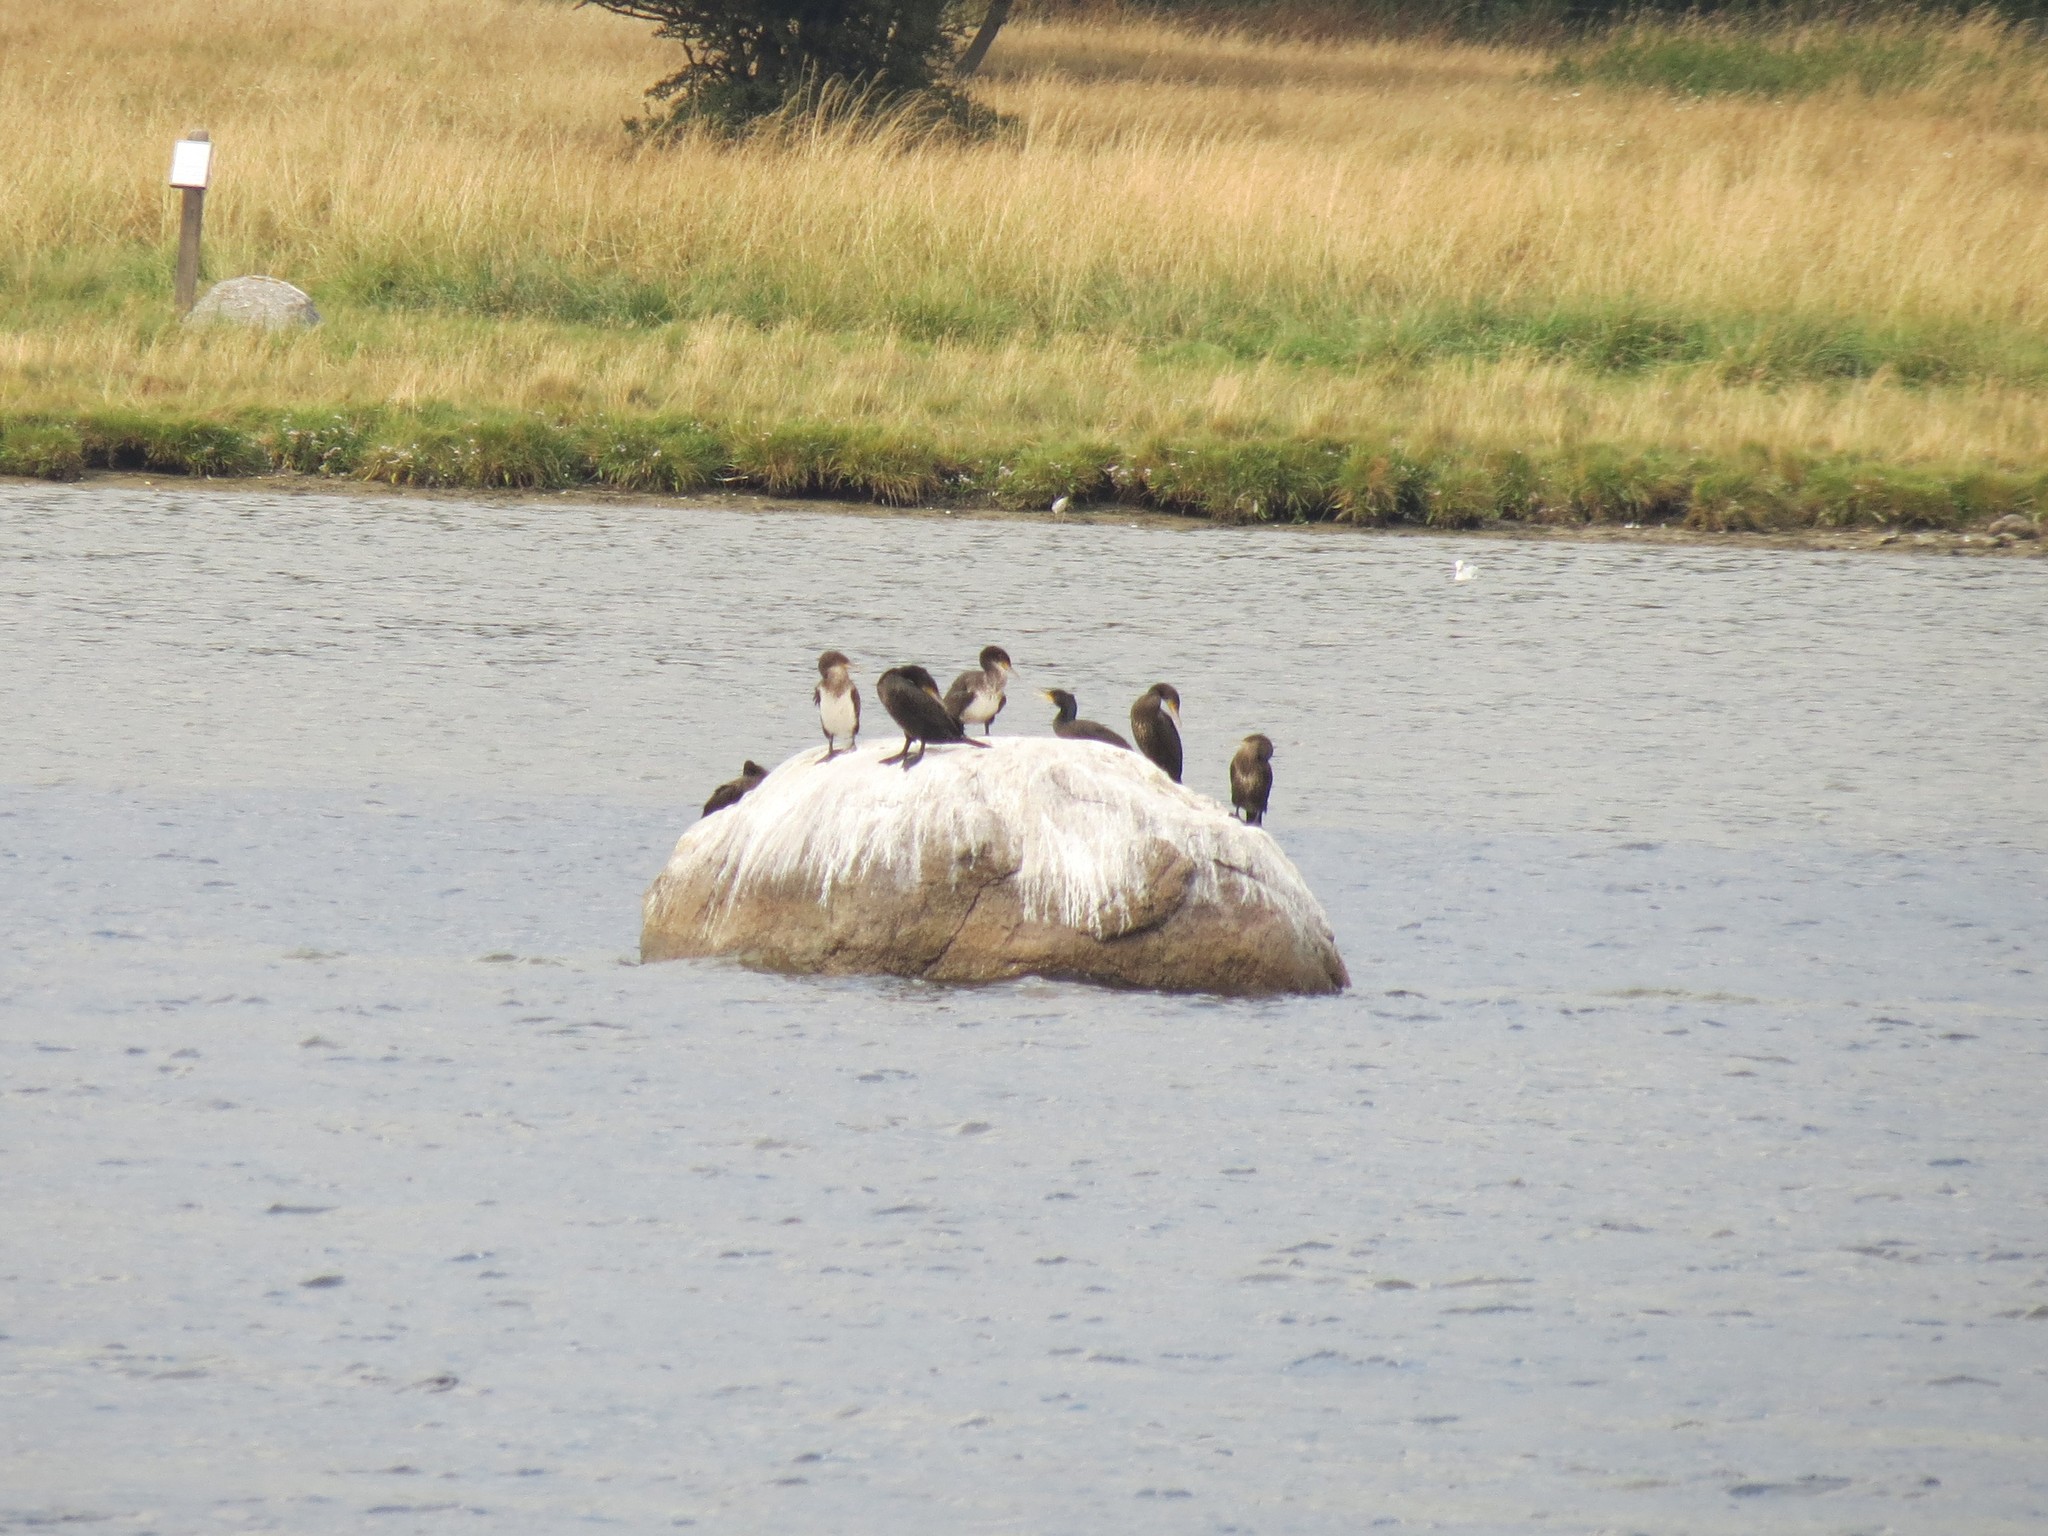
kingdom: Animalia
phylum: Chordata
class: Aves
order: Suliformes
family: Phalacrocoracidae
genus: Phalacrocorax
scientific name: Phalacrocorax carbo
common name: Great cormorant
